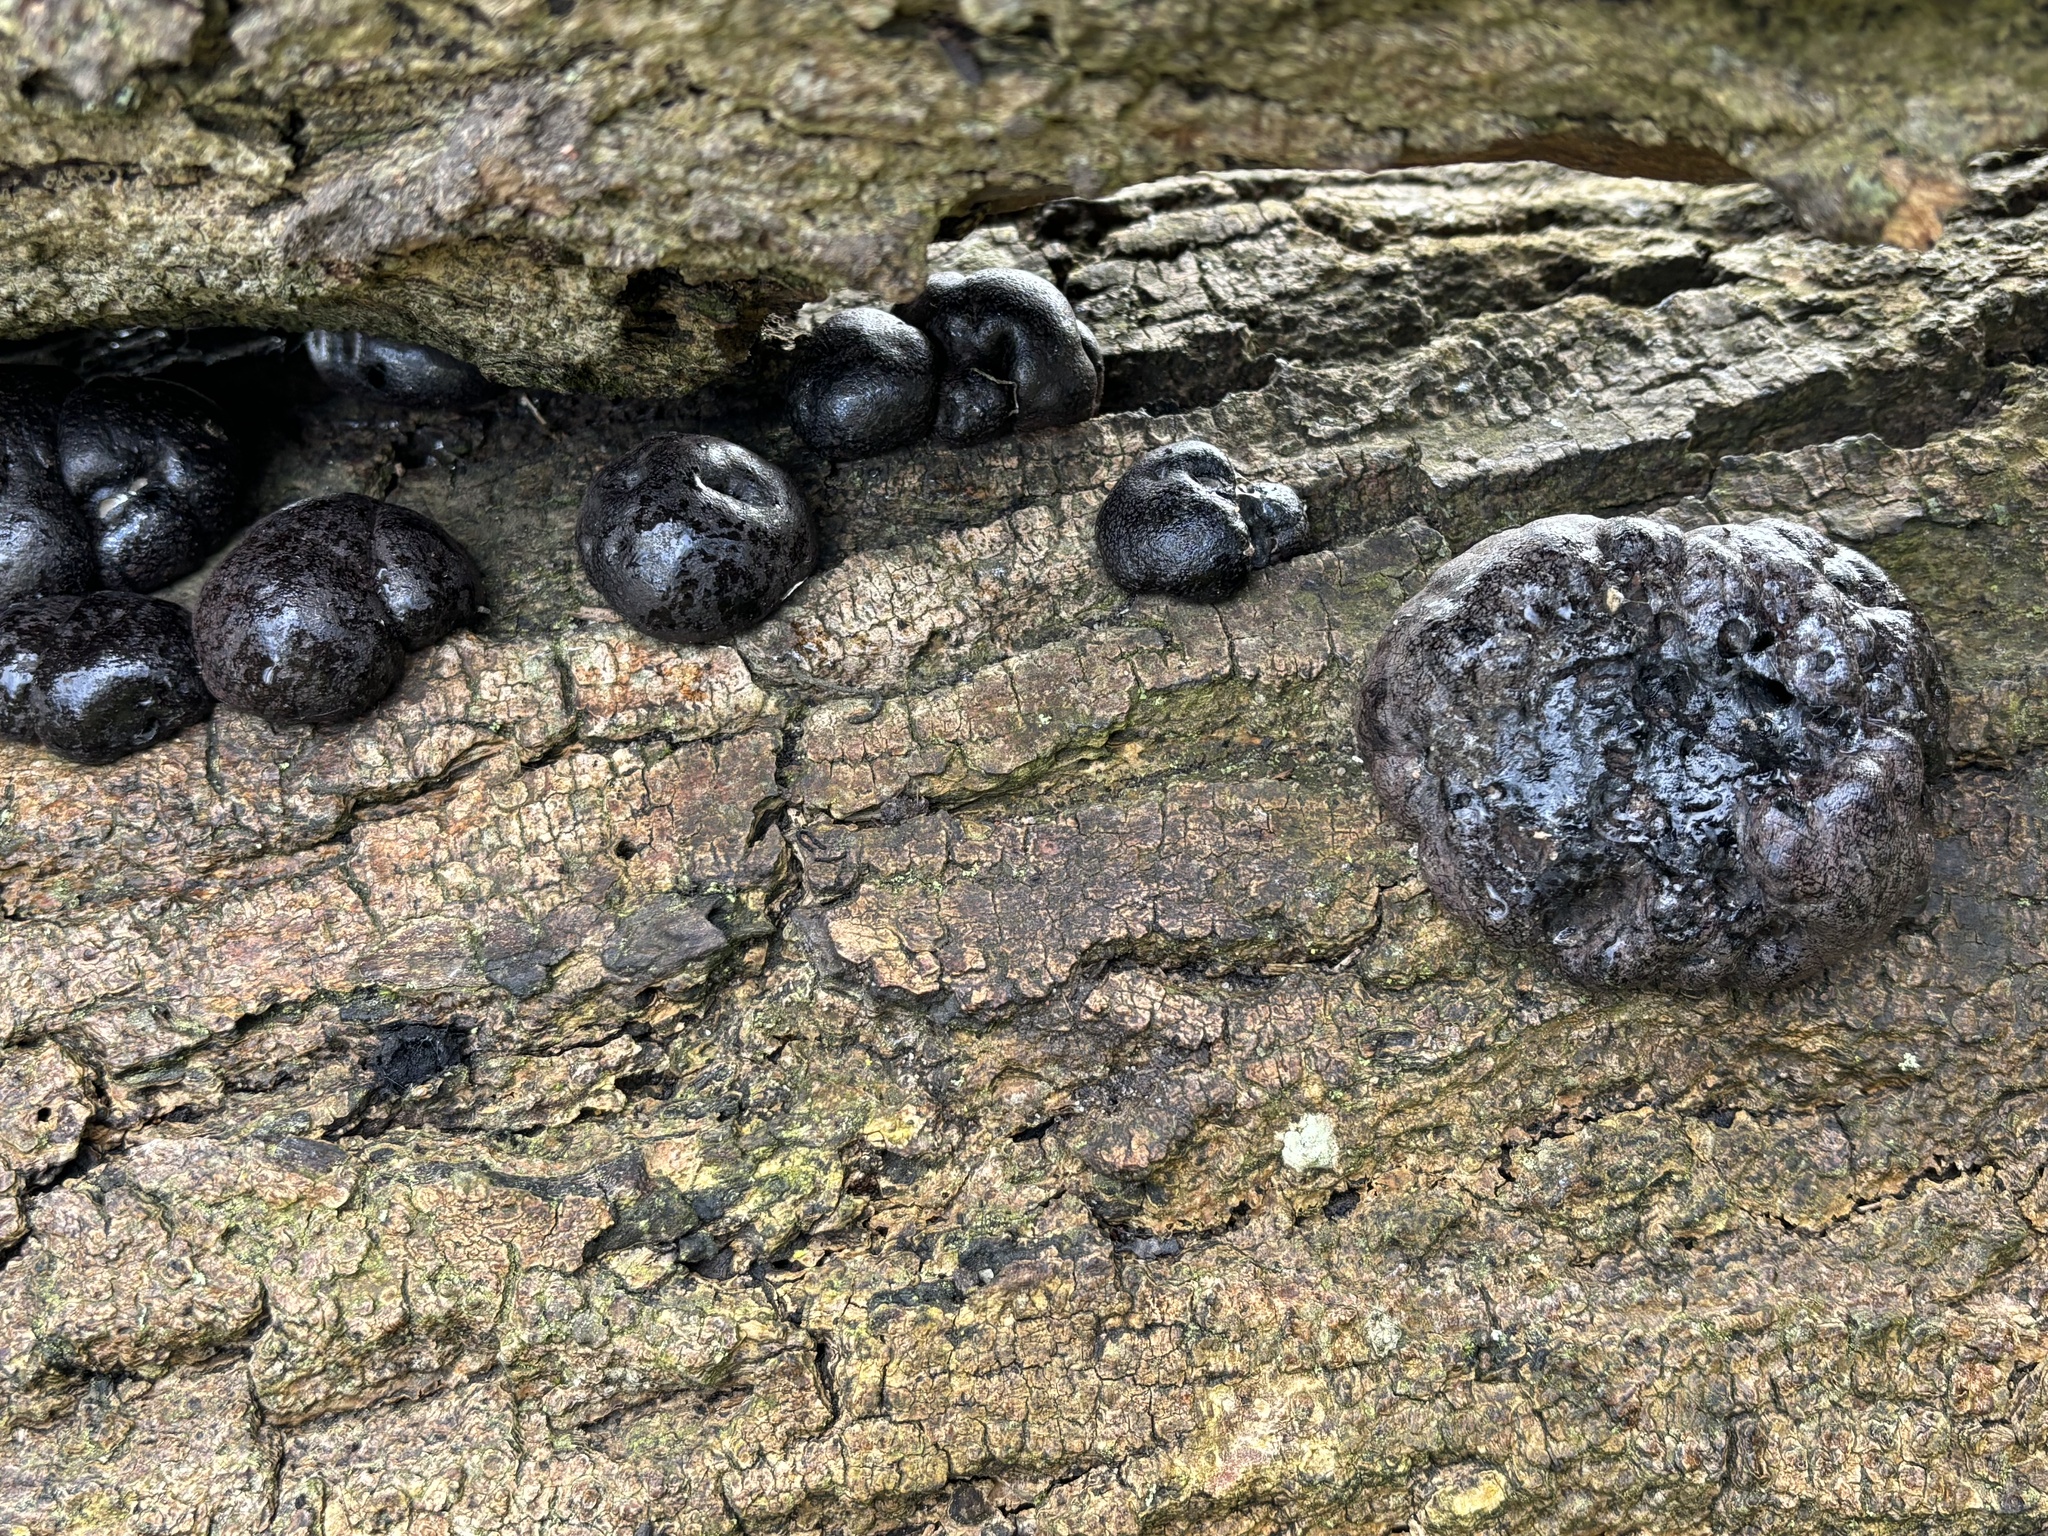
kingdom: Fungi
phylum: Ascomycota
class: Sordariomycetes
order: Xylariales
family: Hypoxylaceae
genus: Daldinia
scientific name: Daldinia concentrica
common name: Cramp balls
